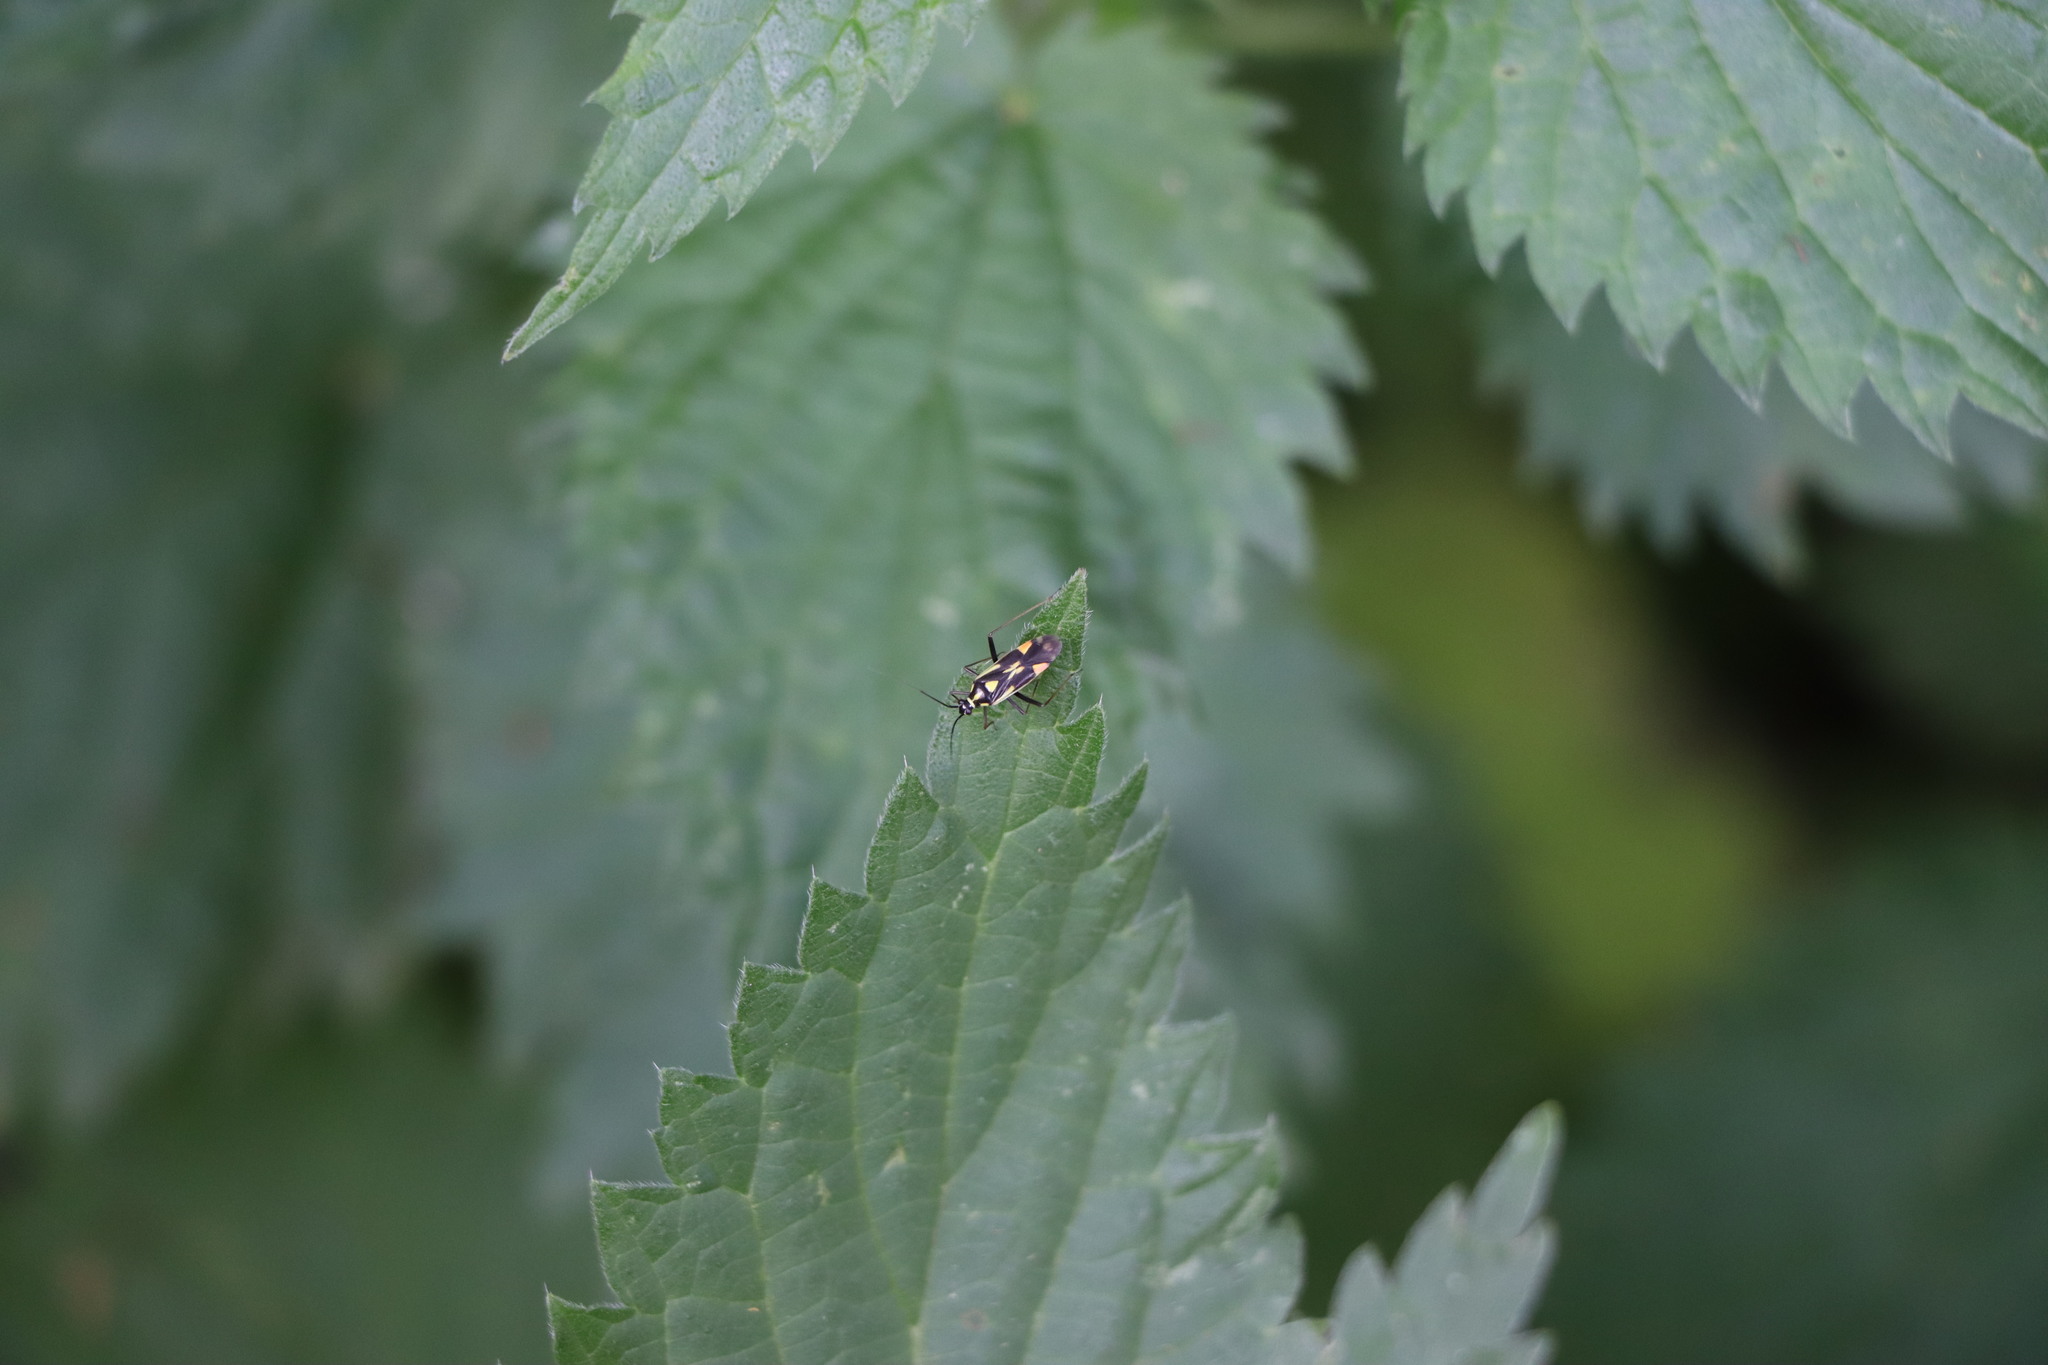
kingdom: Animalia
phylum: Arthropoda
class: Insecta
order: Hemiptera
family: Miridae
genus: Grypocoris
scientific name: Grypocoris stysi
